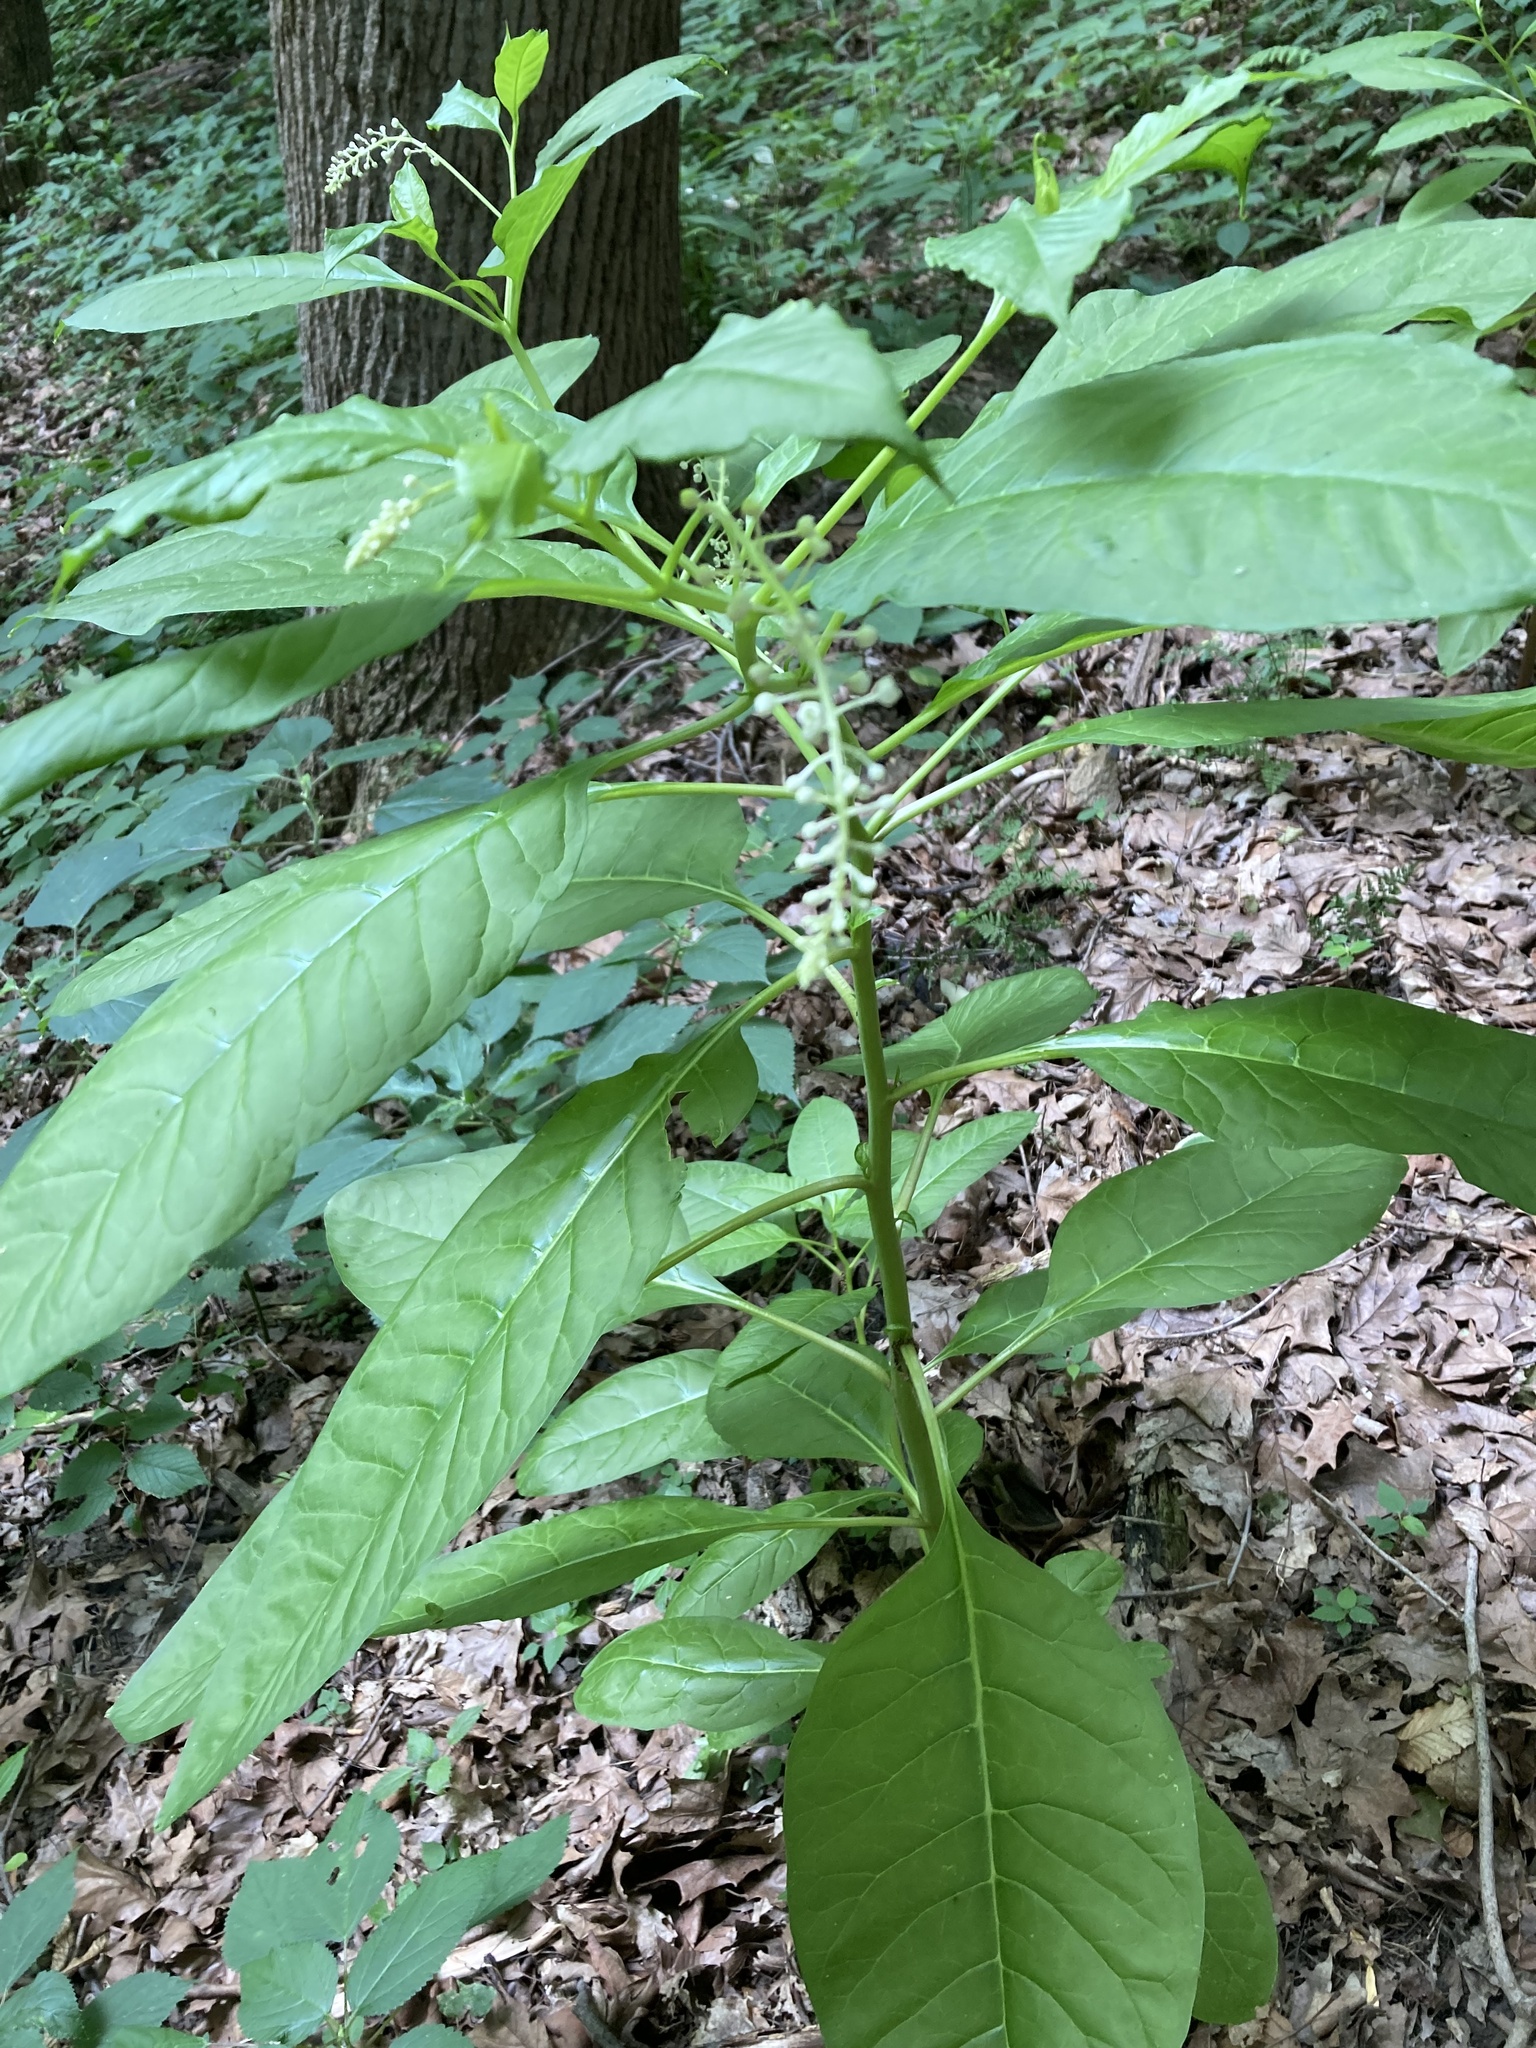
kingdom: Plantae
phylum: Tracheophyta
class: Magnoliopsida
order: Caryophyllales
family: Phytolaccaceae
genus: Phytolacca
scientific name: Phytolacca americana
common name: American pokeweed
